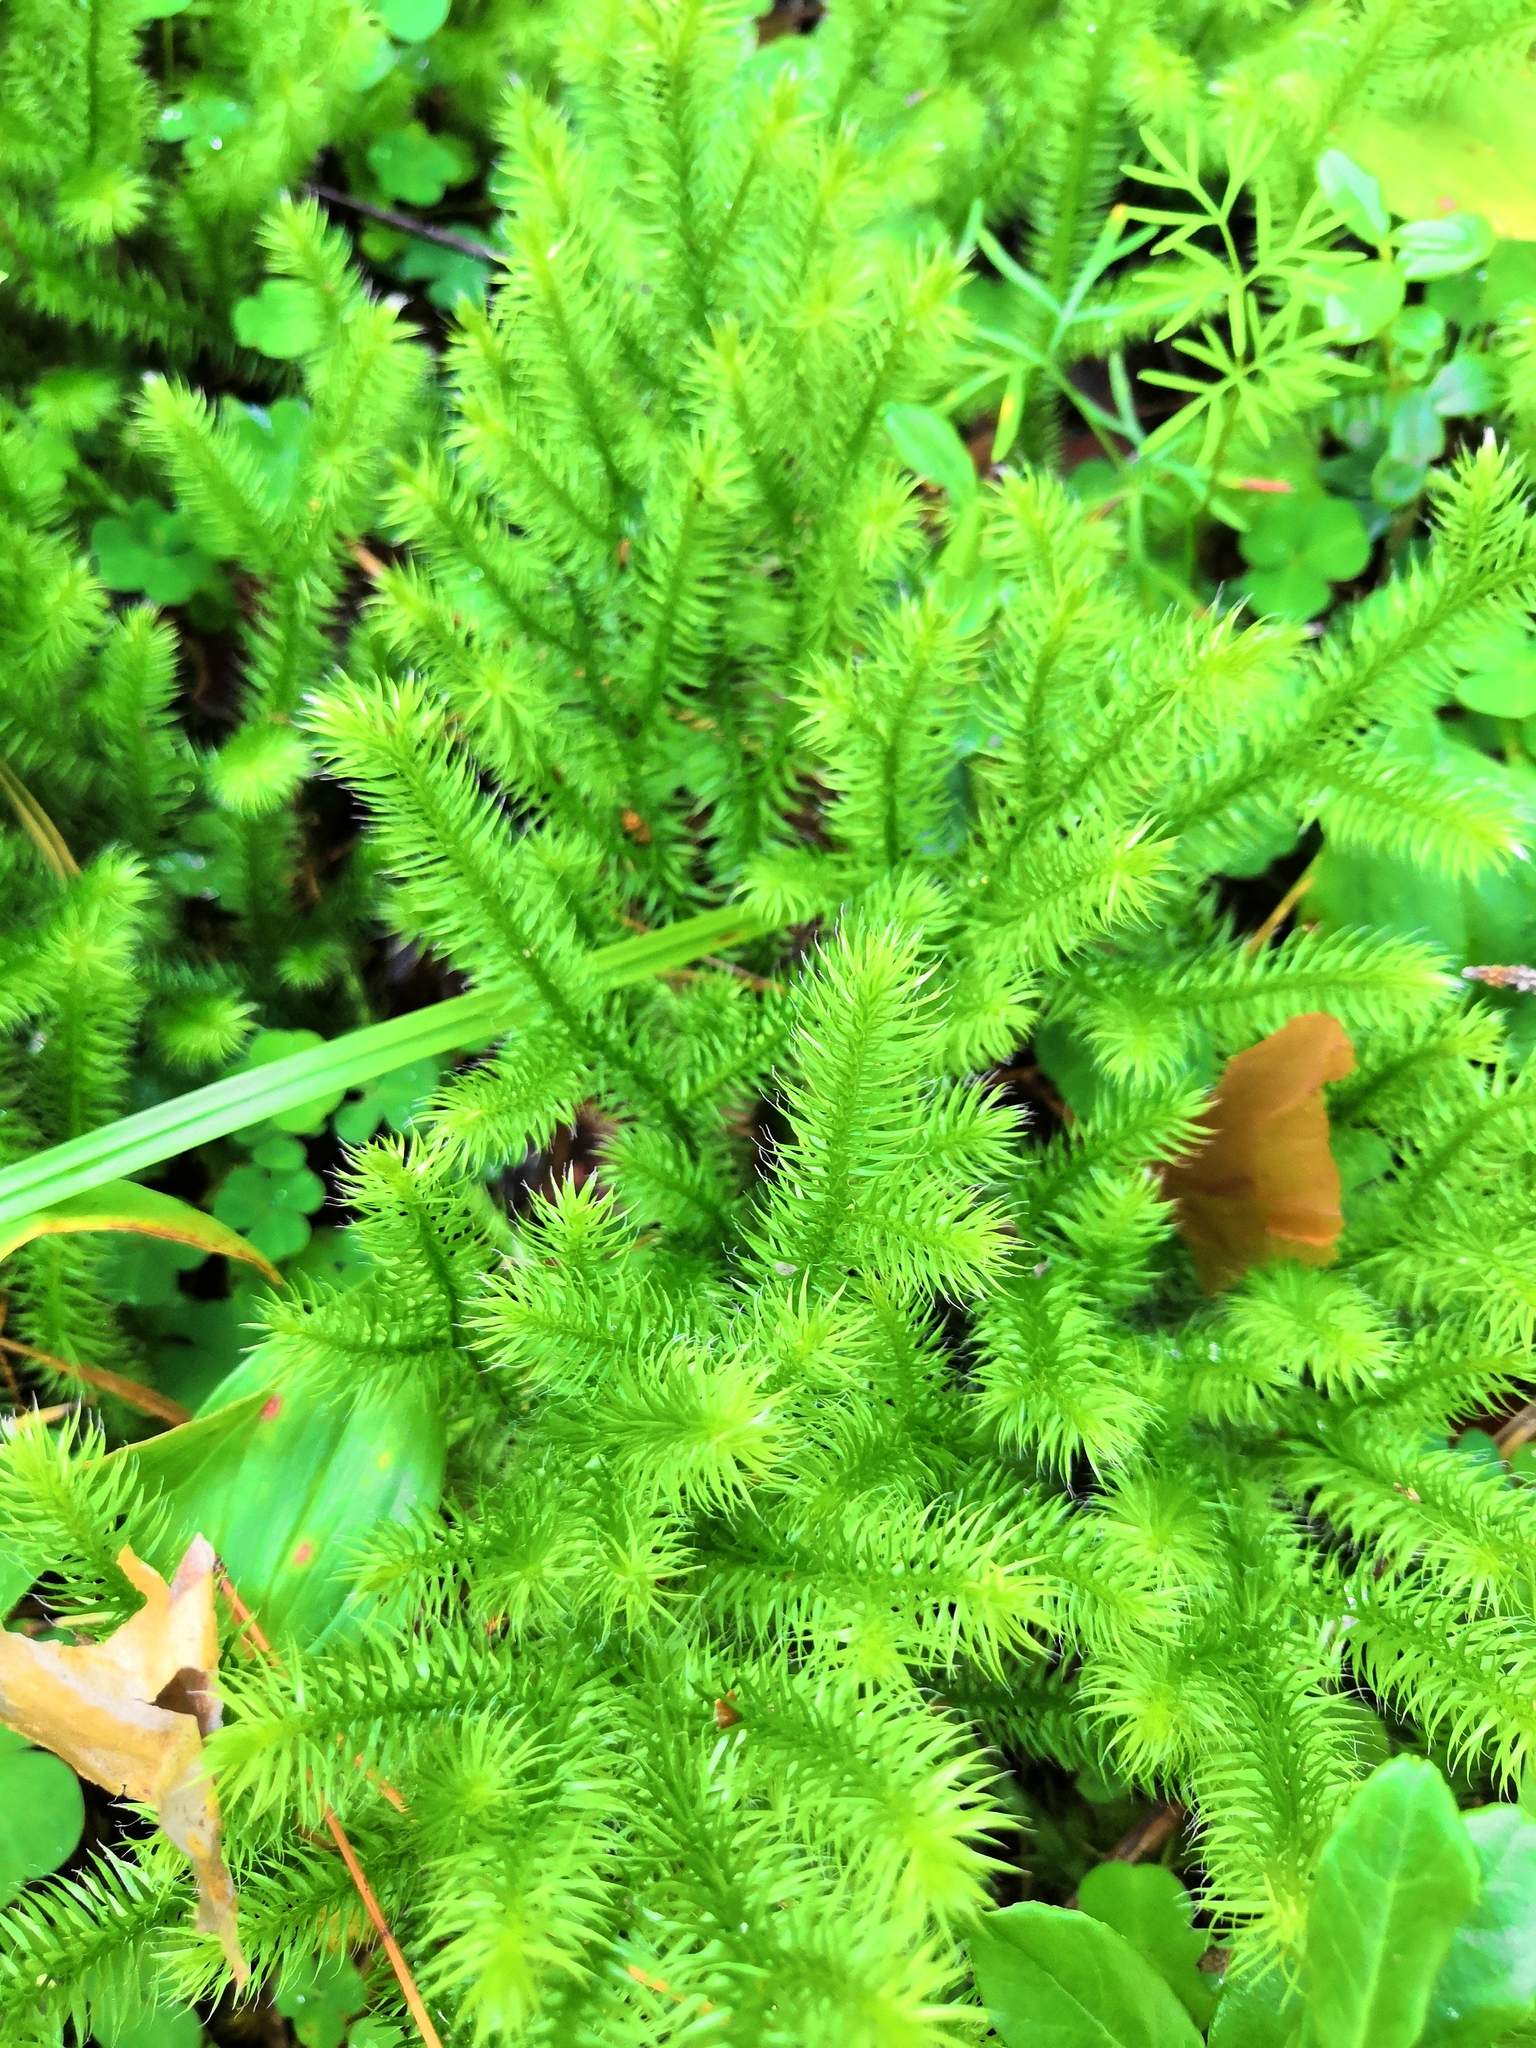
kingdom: Plantae
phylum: Tracheophyta
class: Lycopodiopsida
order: Lycopodiales
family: Lycopodiaceae
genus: Lycopodium
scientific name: Lycopodium clavatum
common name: Stag's-horn clubmoss
